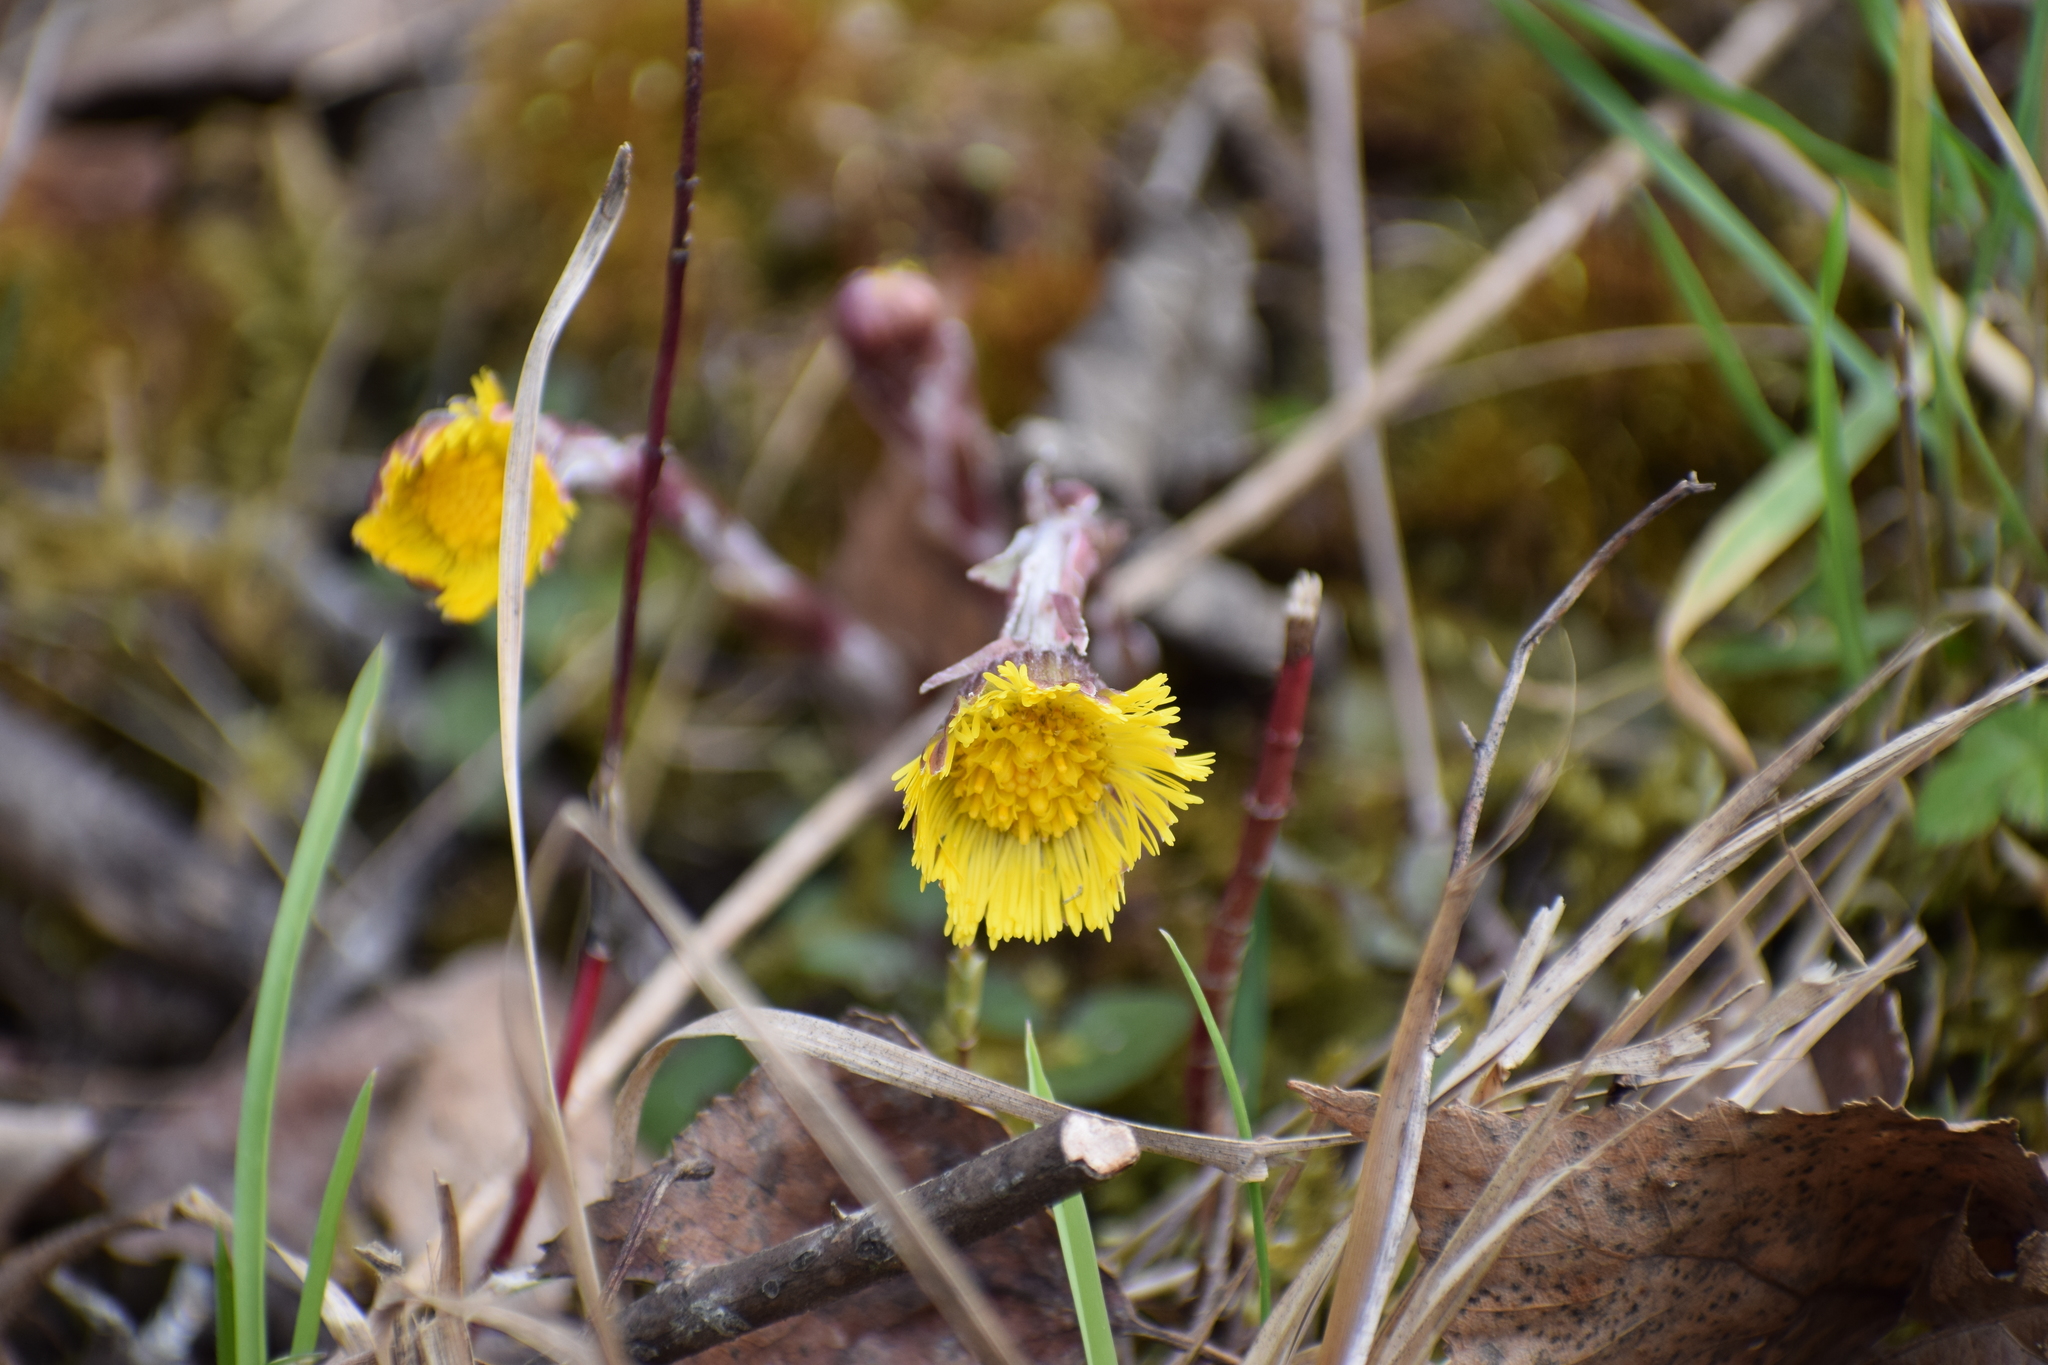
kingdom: Plantae
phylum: Tracheophyta
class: Magnoliopsida
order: Asterales
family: Asteraceae
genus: Tussilago
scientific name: Tussilago farfara
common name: Coltsfoot
